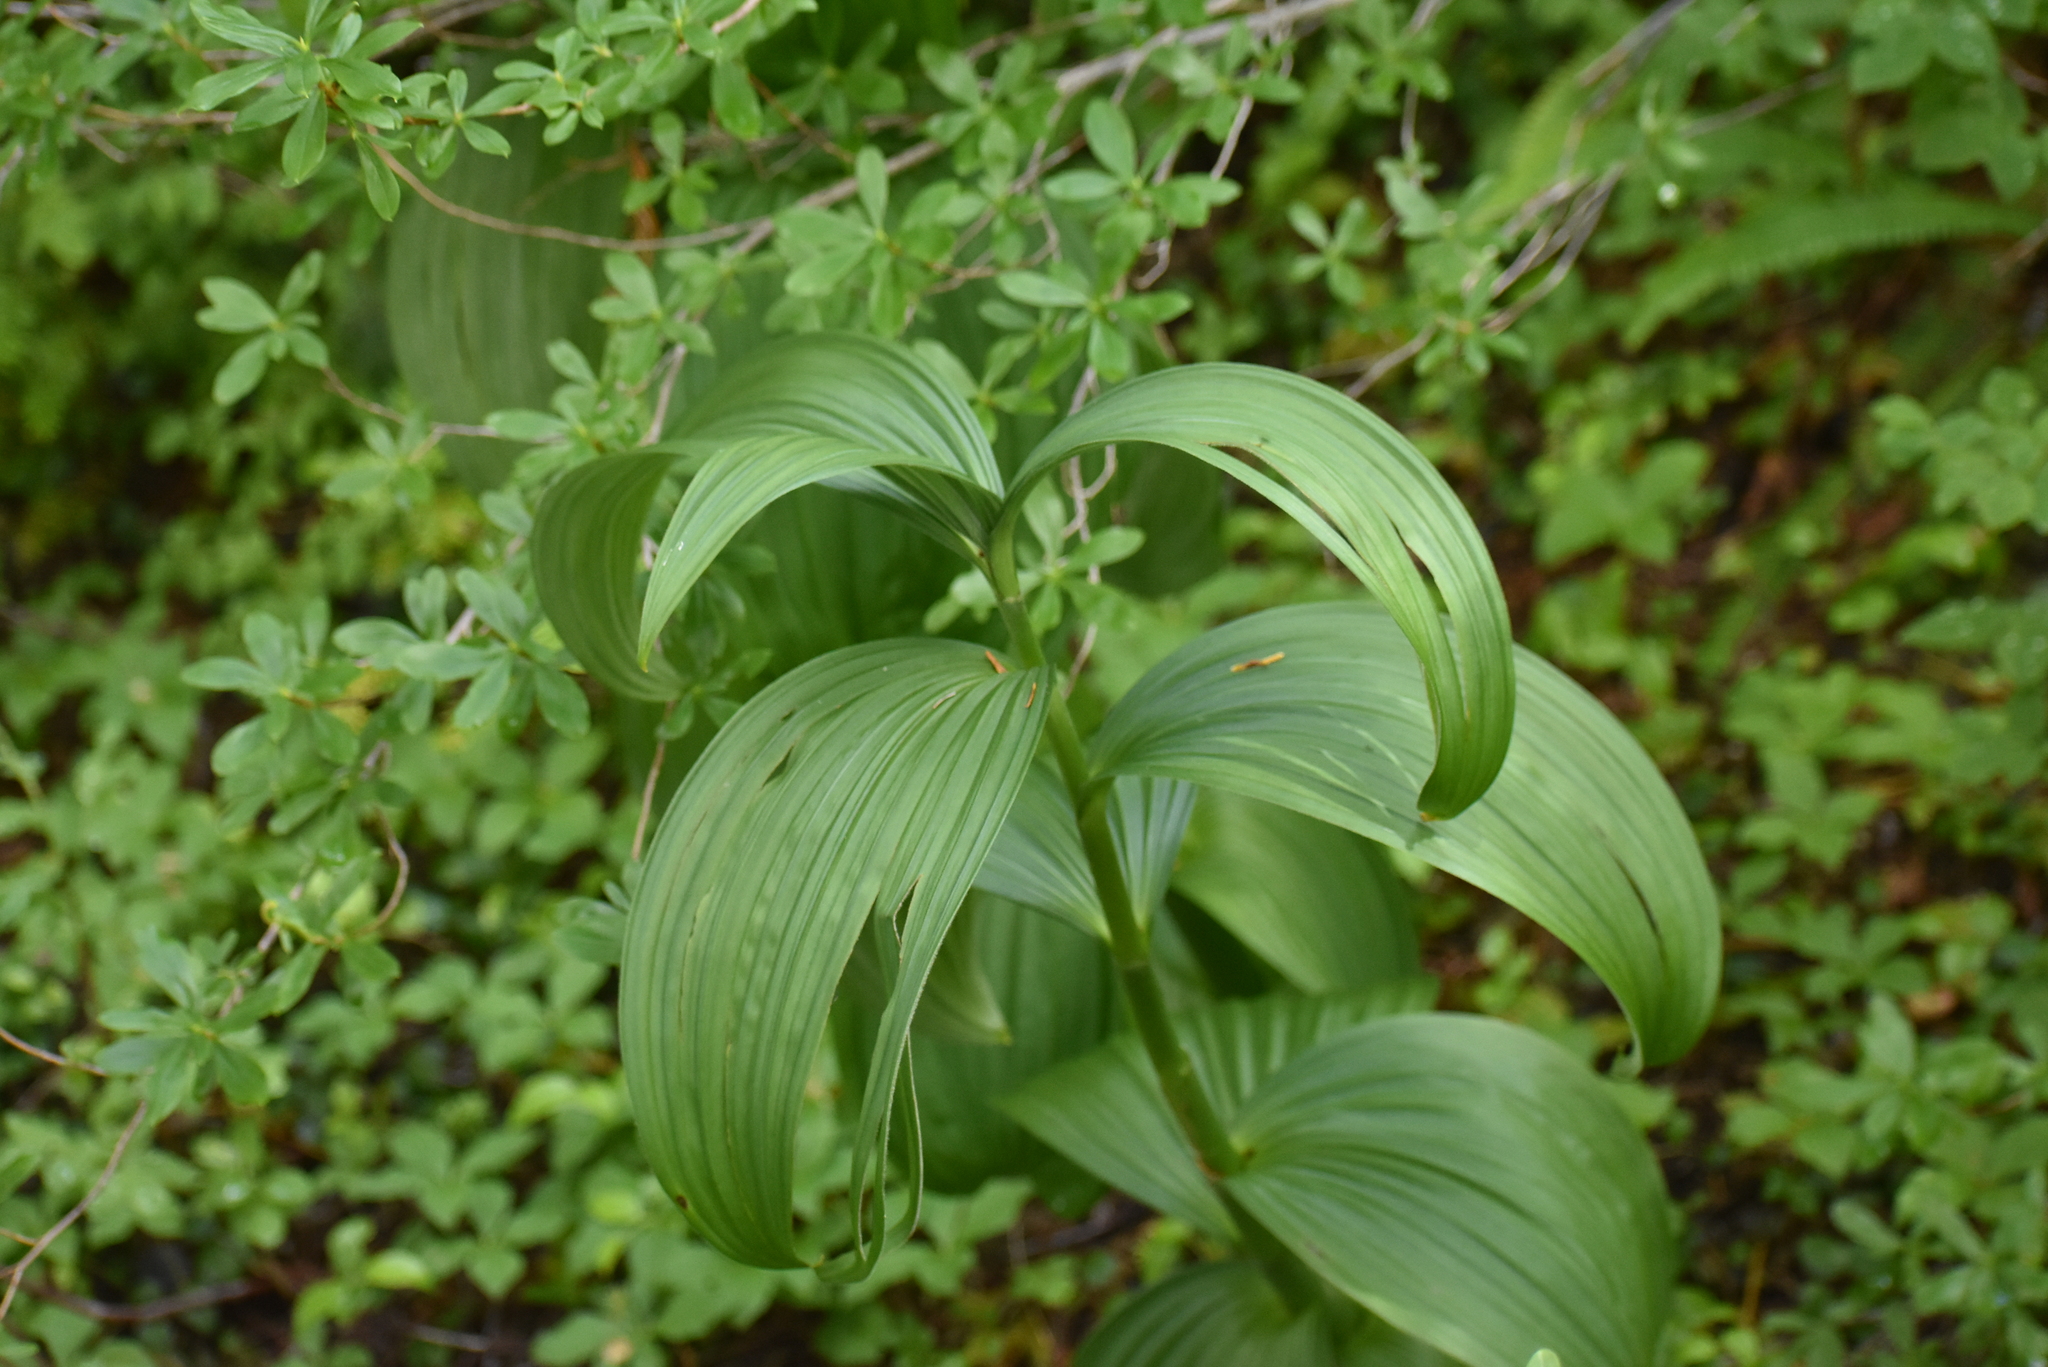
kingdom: Plantae
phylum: Tracheophyta
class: Liliopsida
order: Liliales
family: Melanthiaceae
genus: Veratrum
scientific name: Veratrum viride
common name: American false hellebore
